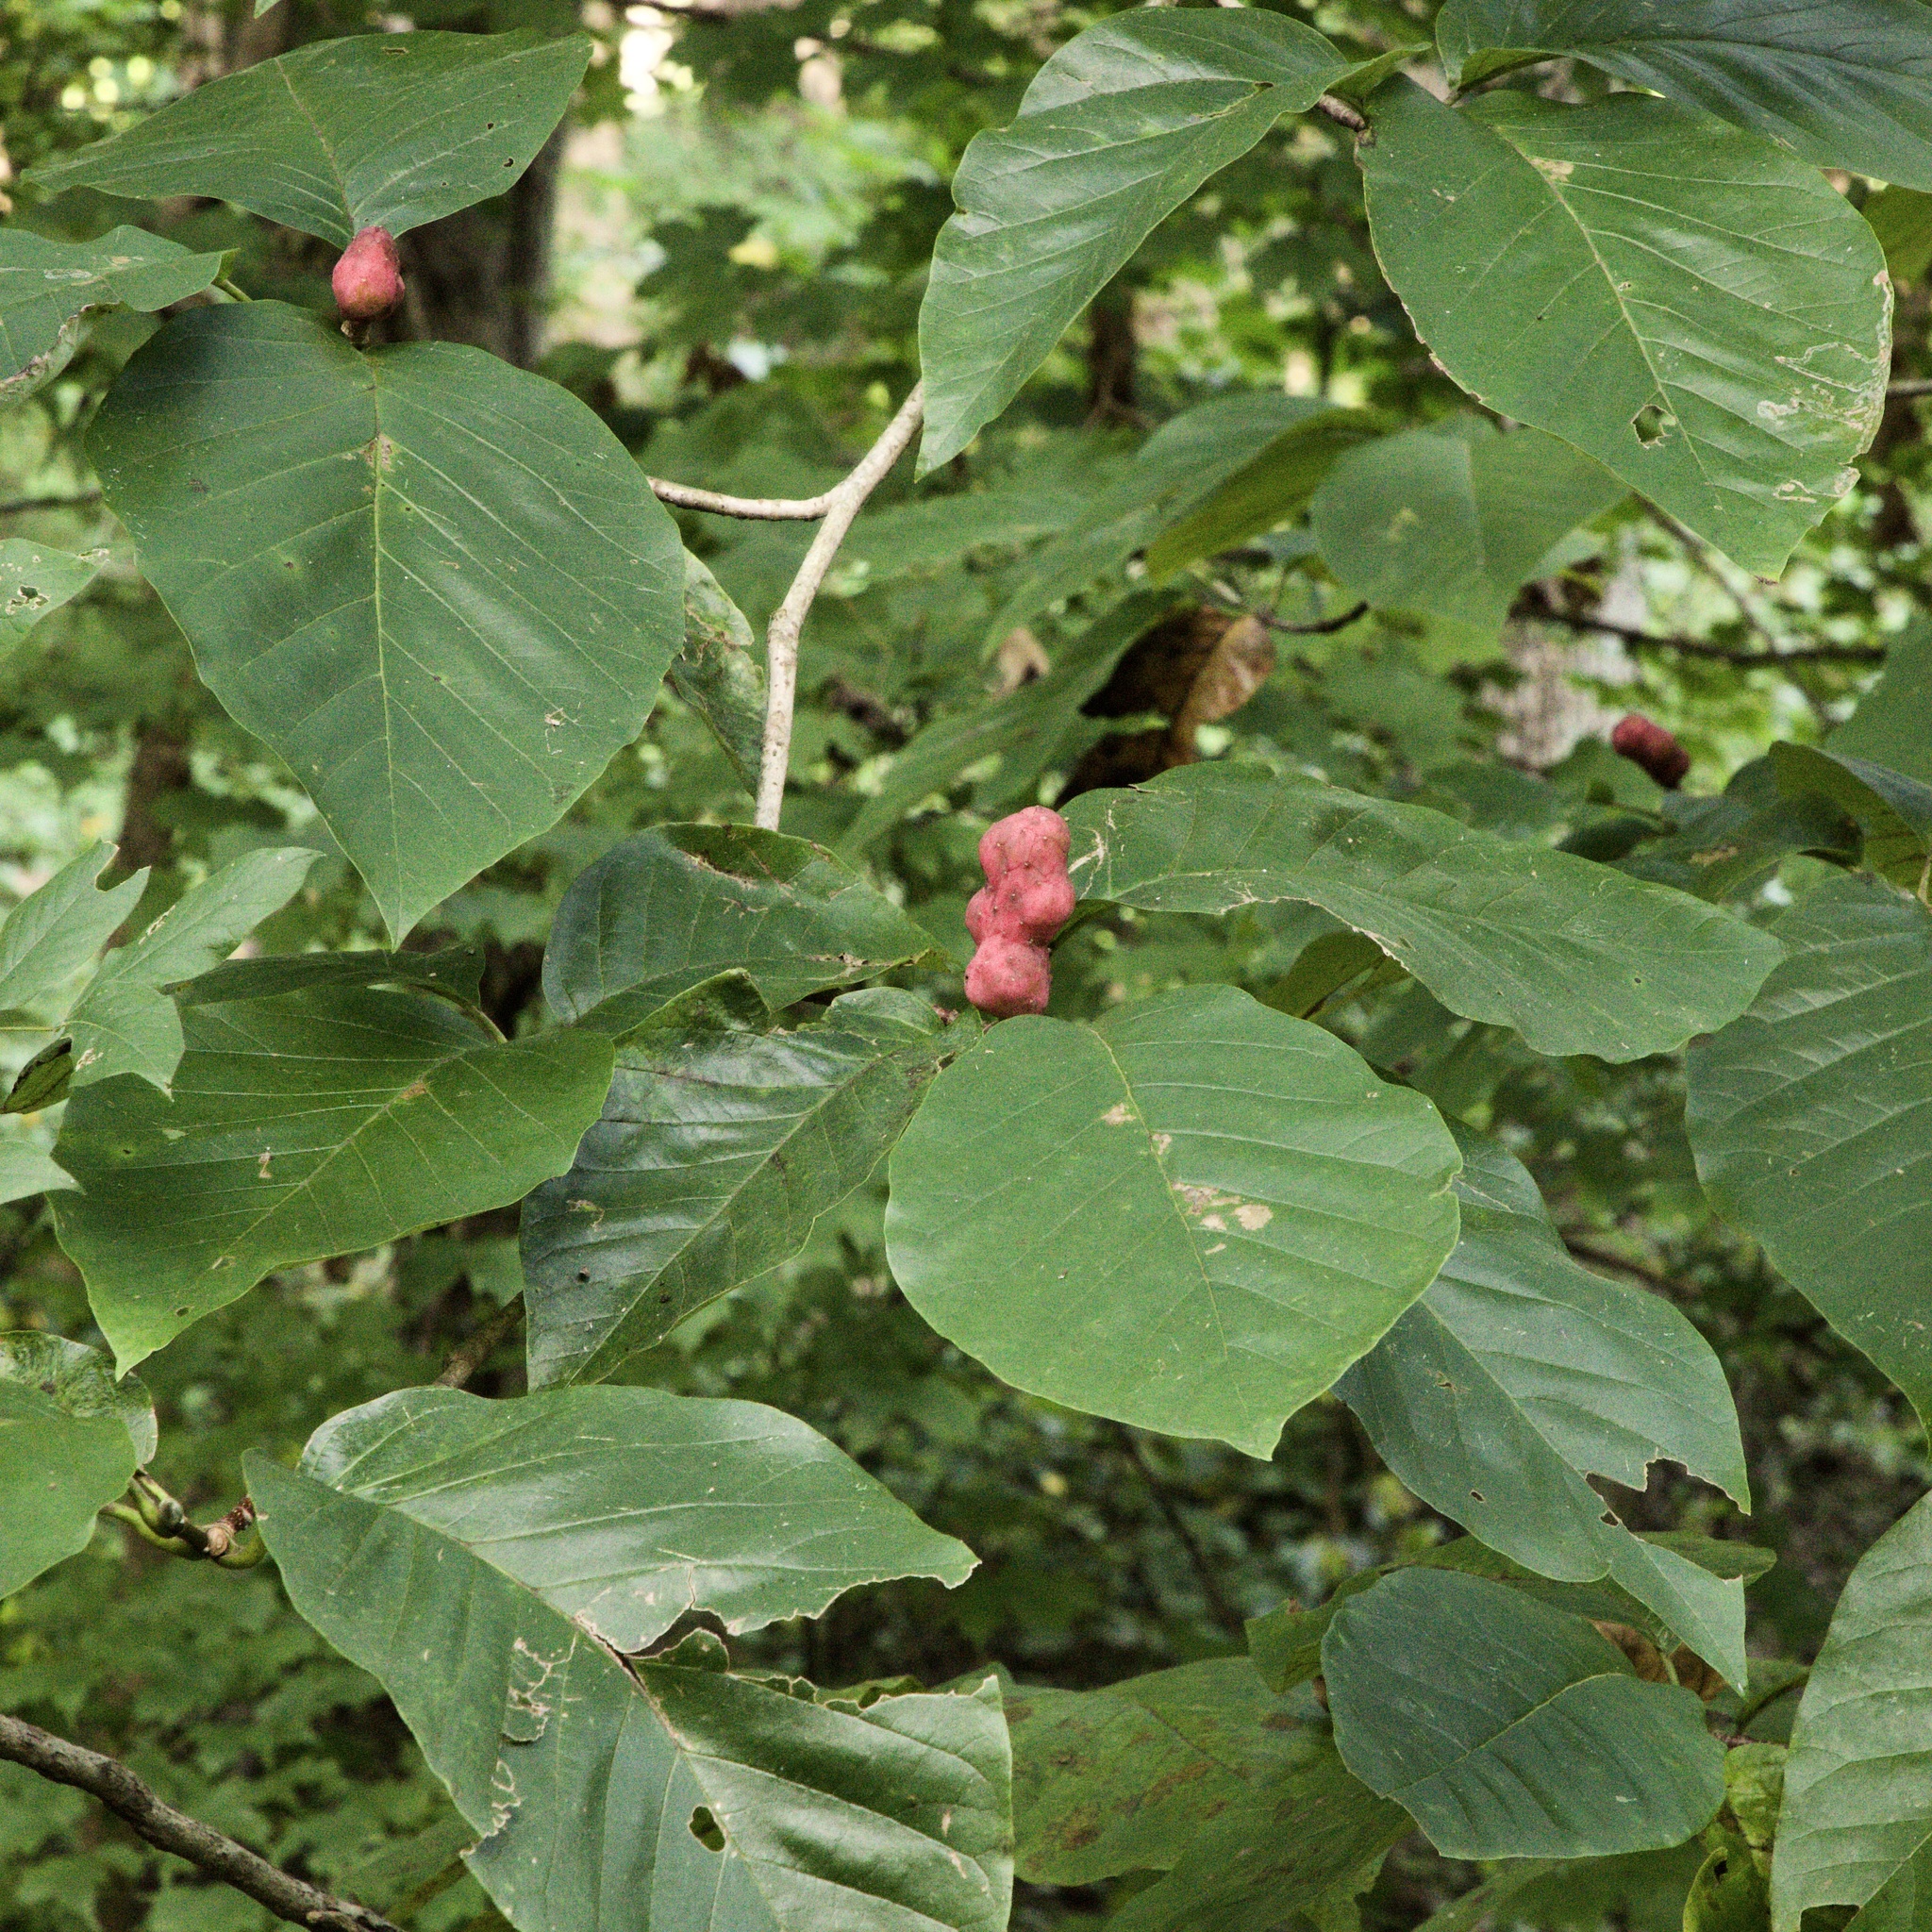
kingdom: Plantae
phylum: Tracheophyta
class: Magnoliopsida
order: Magnoliales
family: Magnoliaceae
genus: Magnolia
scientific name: Magnolia acuminata
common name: Cucumber magnolia
